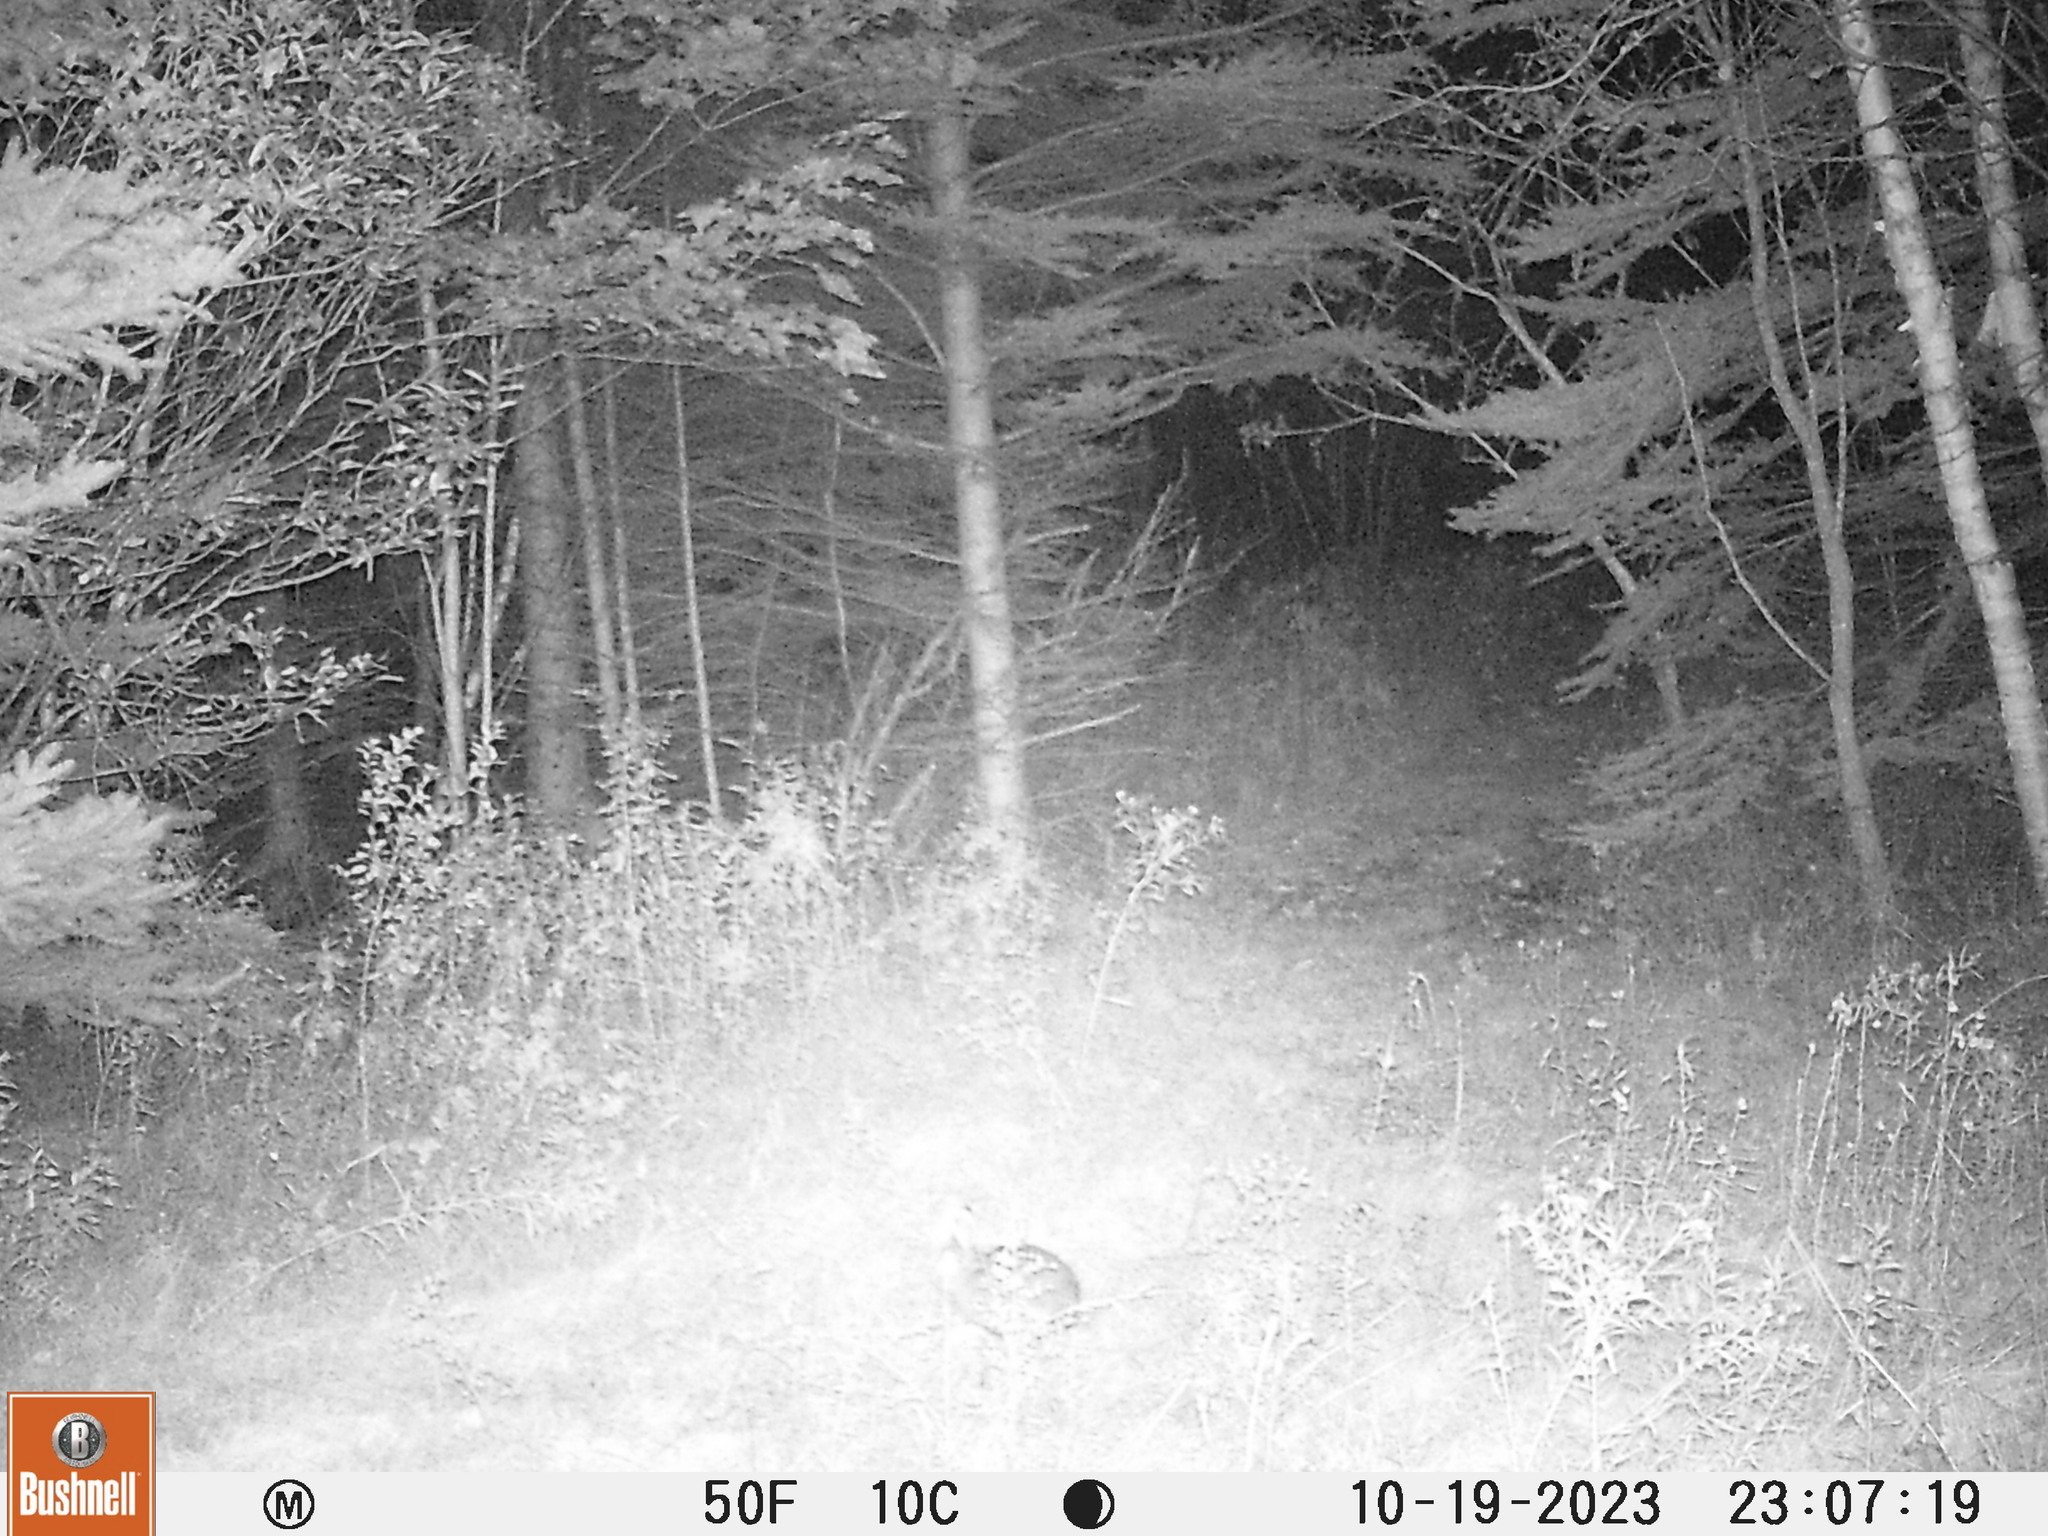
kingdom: Animalia
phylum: Chordata
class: Mammalia
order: Lagomorpha
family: Leporidae
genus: Lepus
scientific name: Lepus americanus
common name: Snowshoe hare
